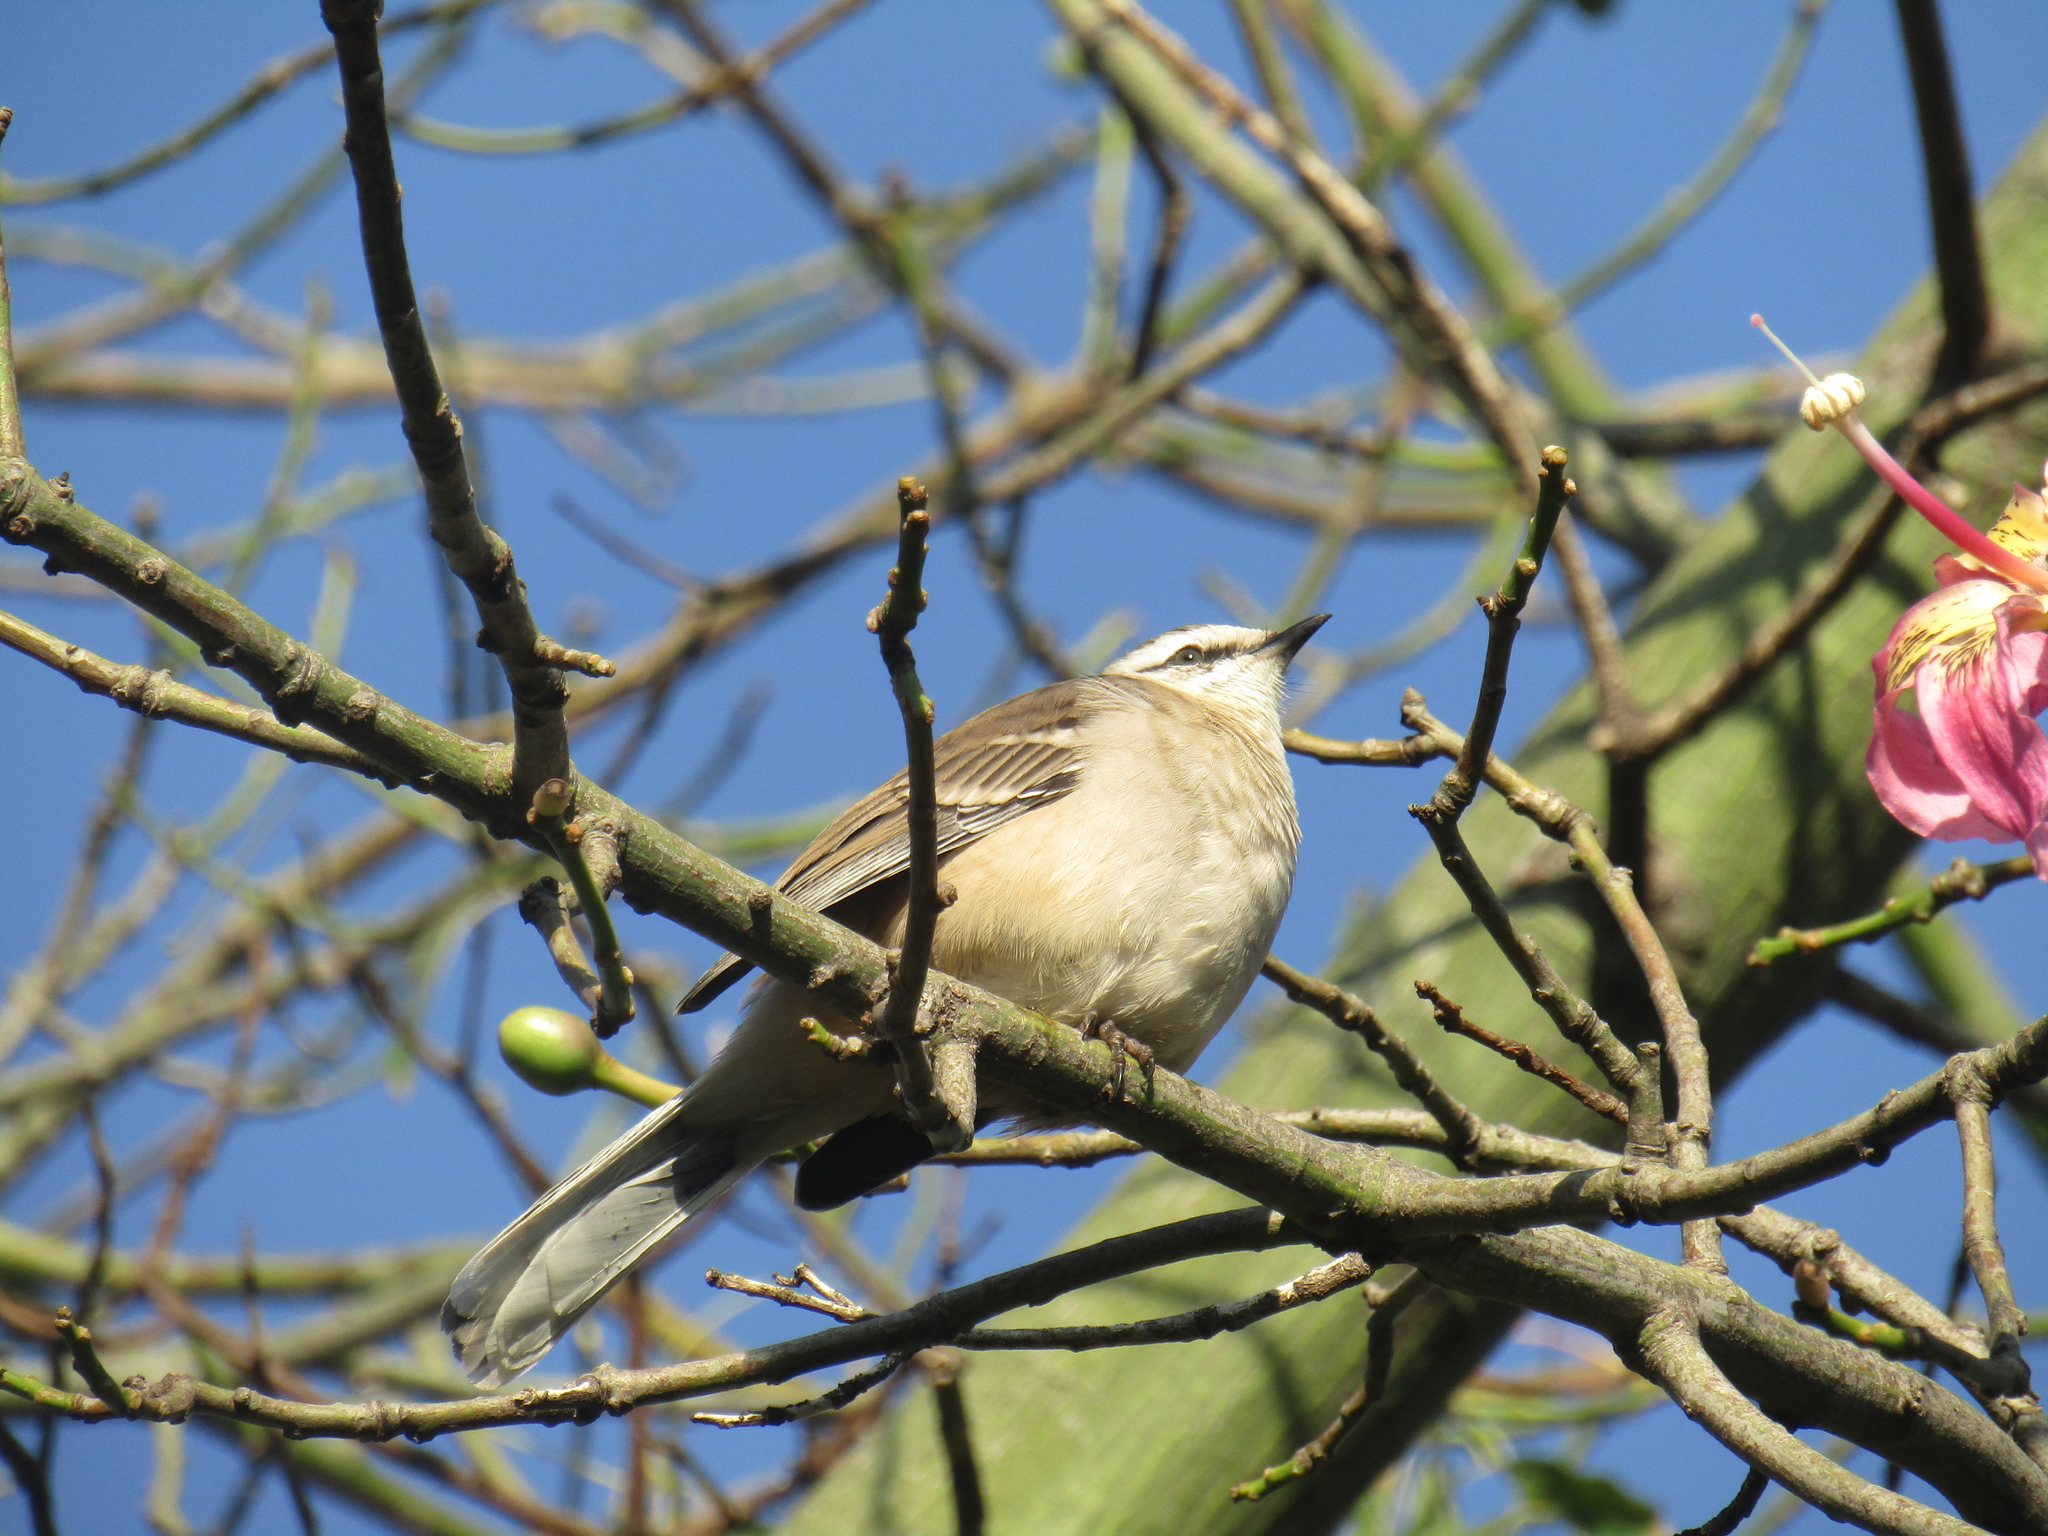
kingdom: Animalia
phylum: Chordata
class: Aves
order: Passeriformes
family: Mimidae
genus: Mimus
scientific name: Mimus saturninus
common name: Chalk-browed mockingbird
